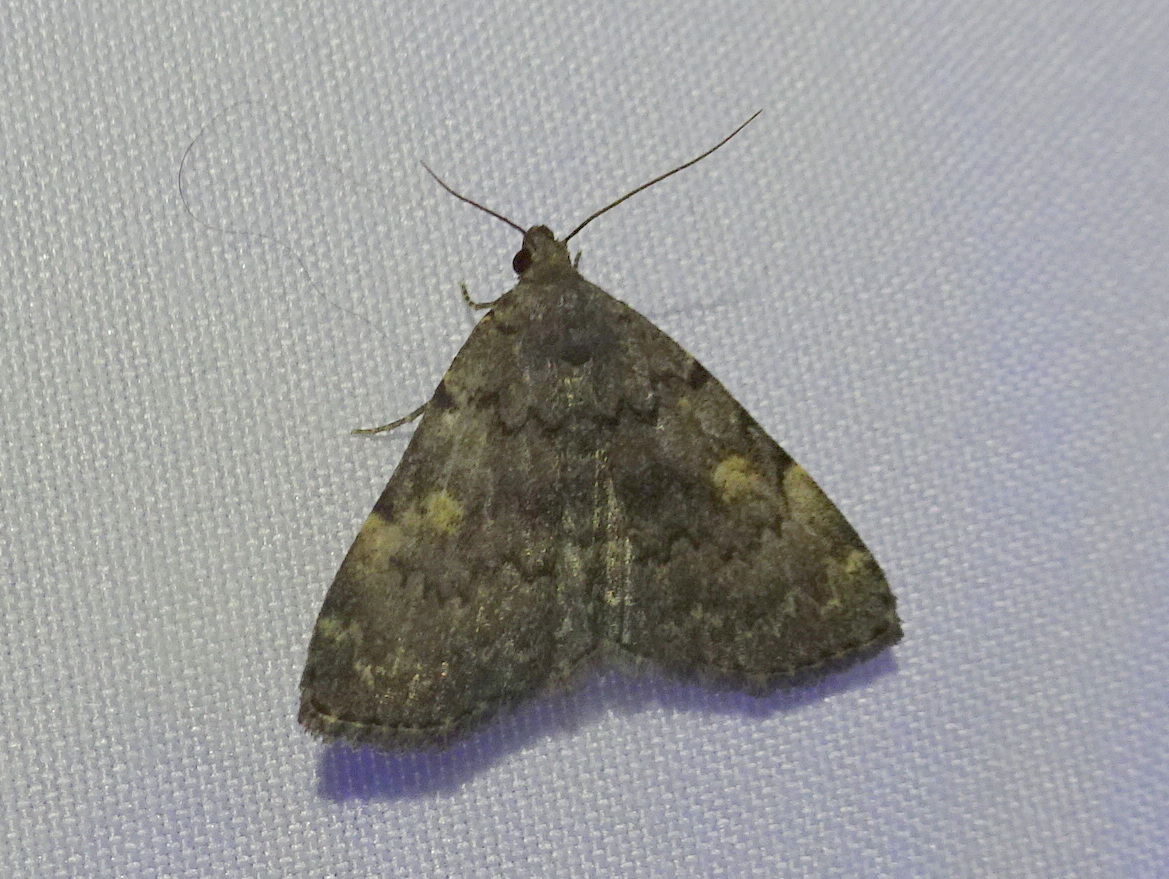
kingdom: Animalia
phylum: Arthropoda
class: Insecta
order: Lepidoptera
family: Erebidae
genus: Idia
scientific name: Idia aemula
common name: Common idia moth
